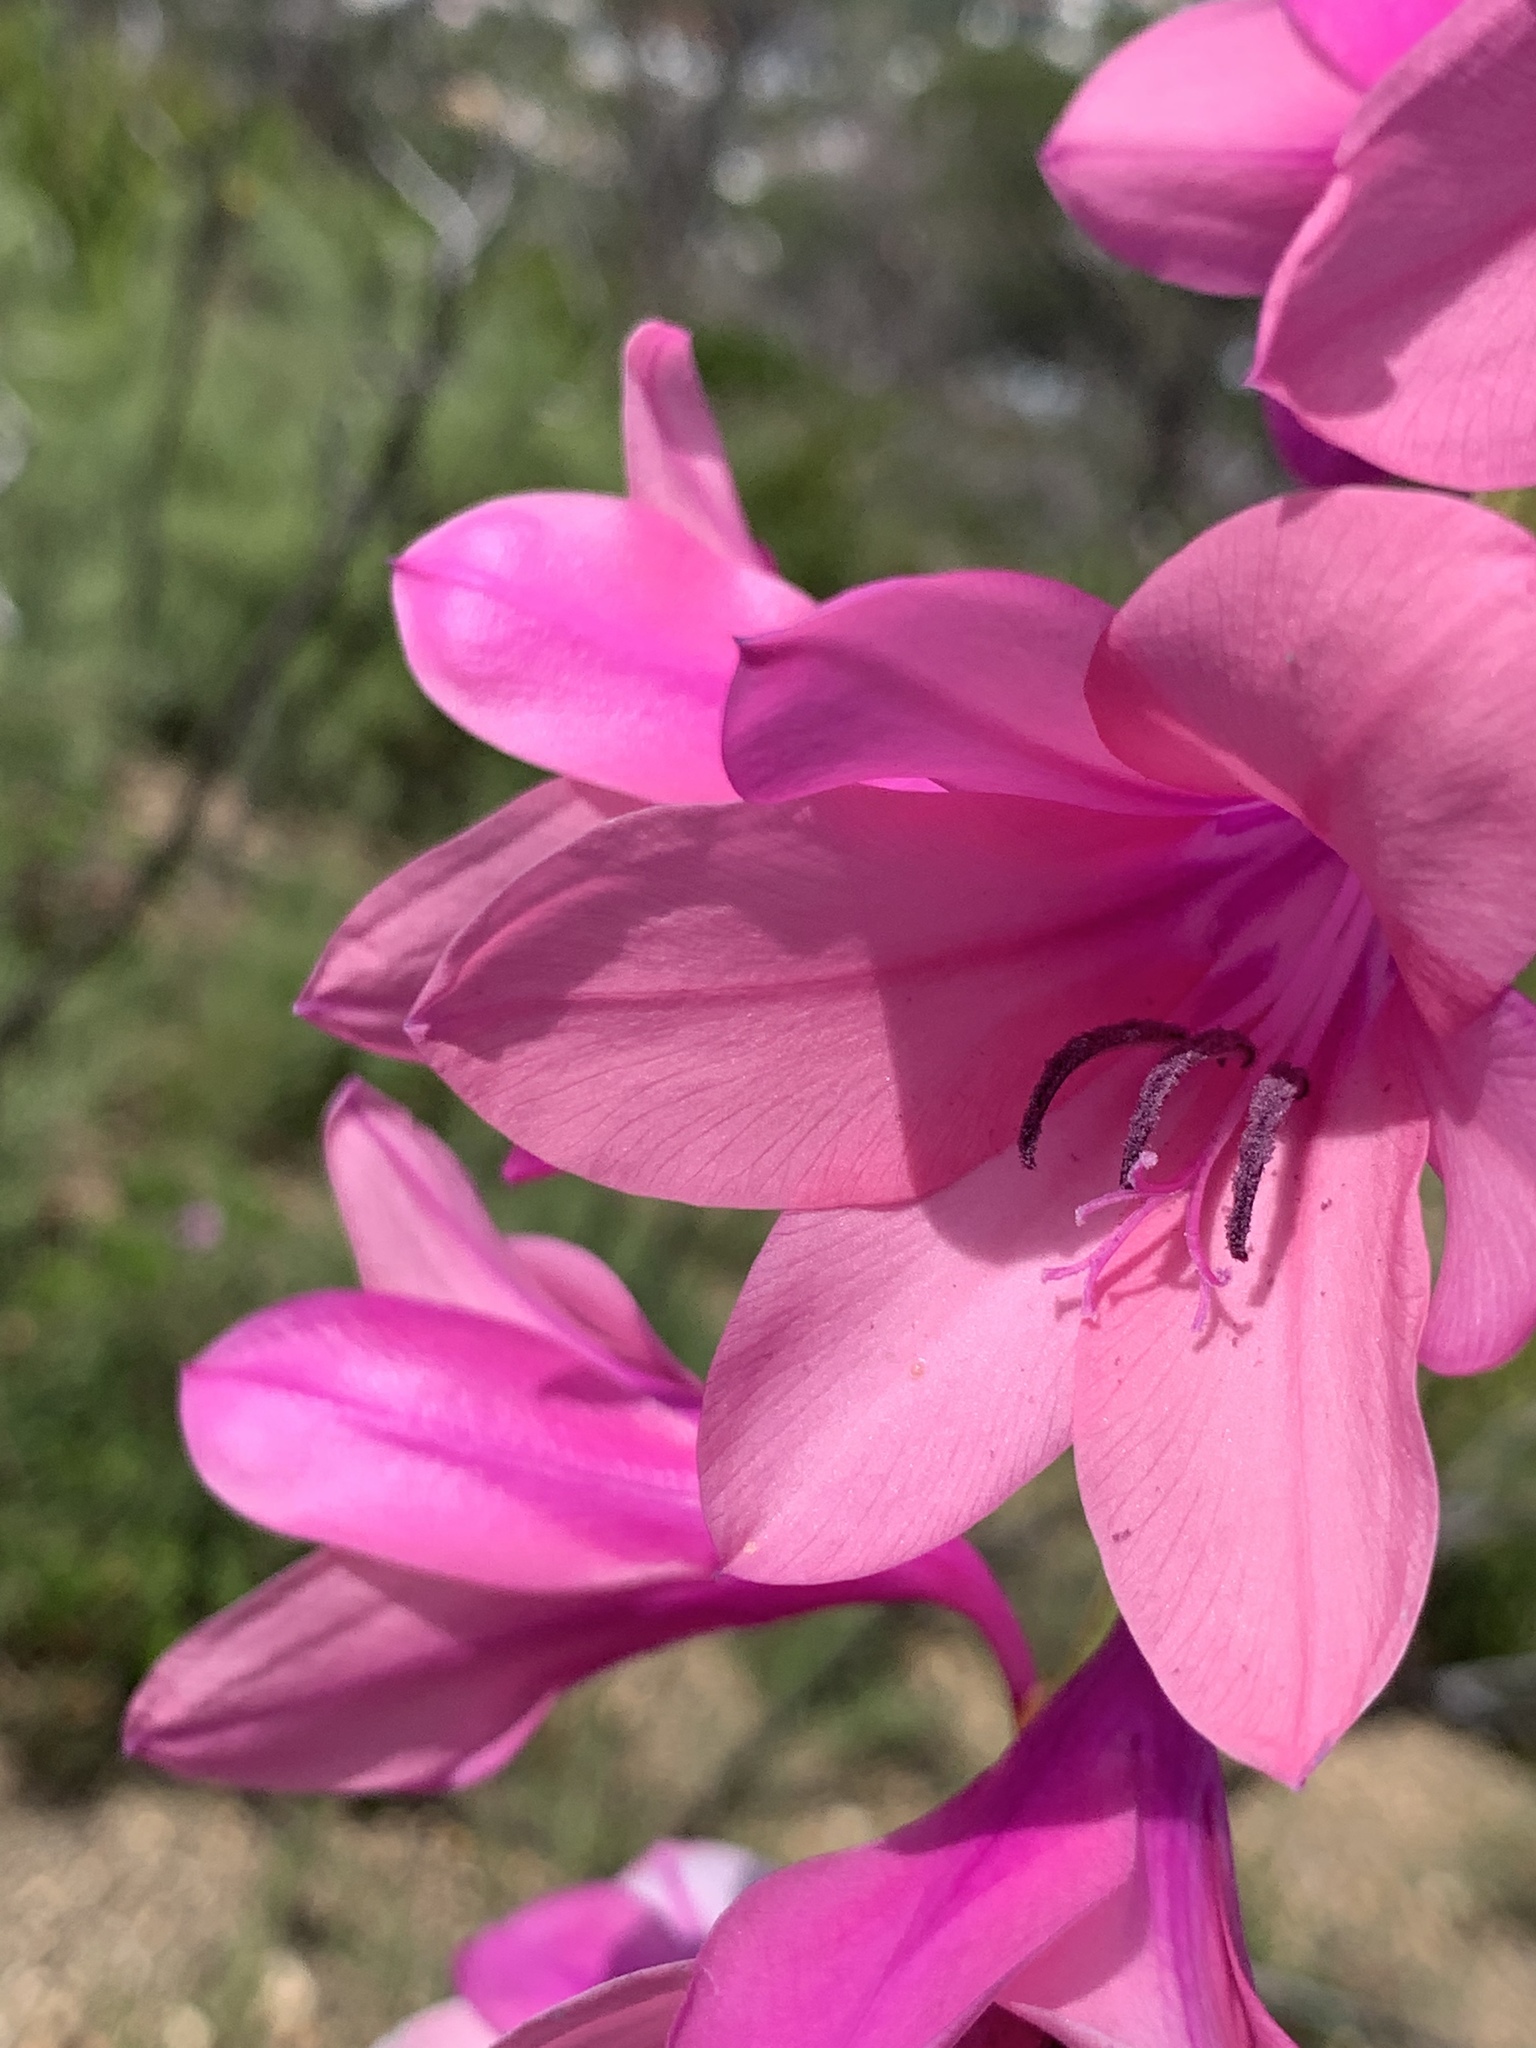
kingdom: Plantae
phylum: Tracheophyta
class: Liliopsida
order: Asparagales
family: Iridaceae
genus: Watsonia
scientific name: Watsonia borbonica
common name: Bugle-lily
